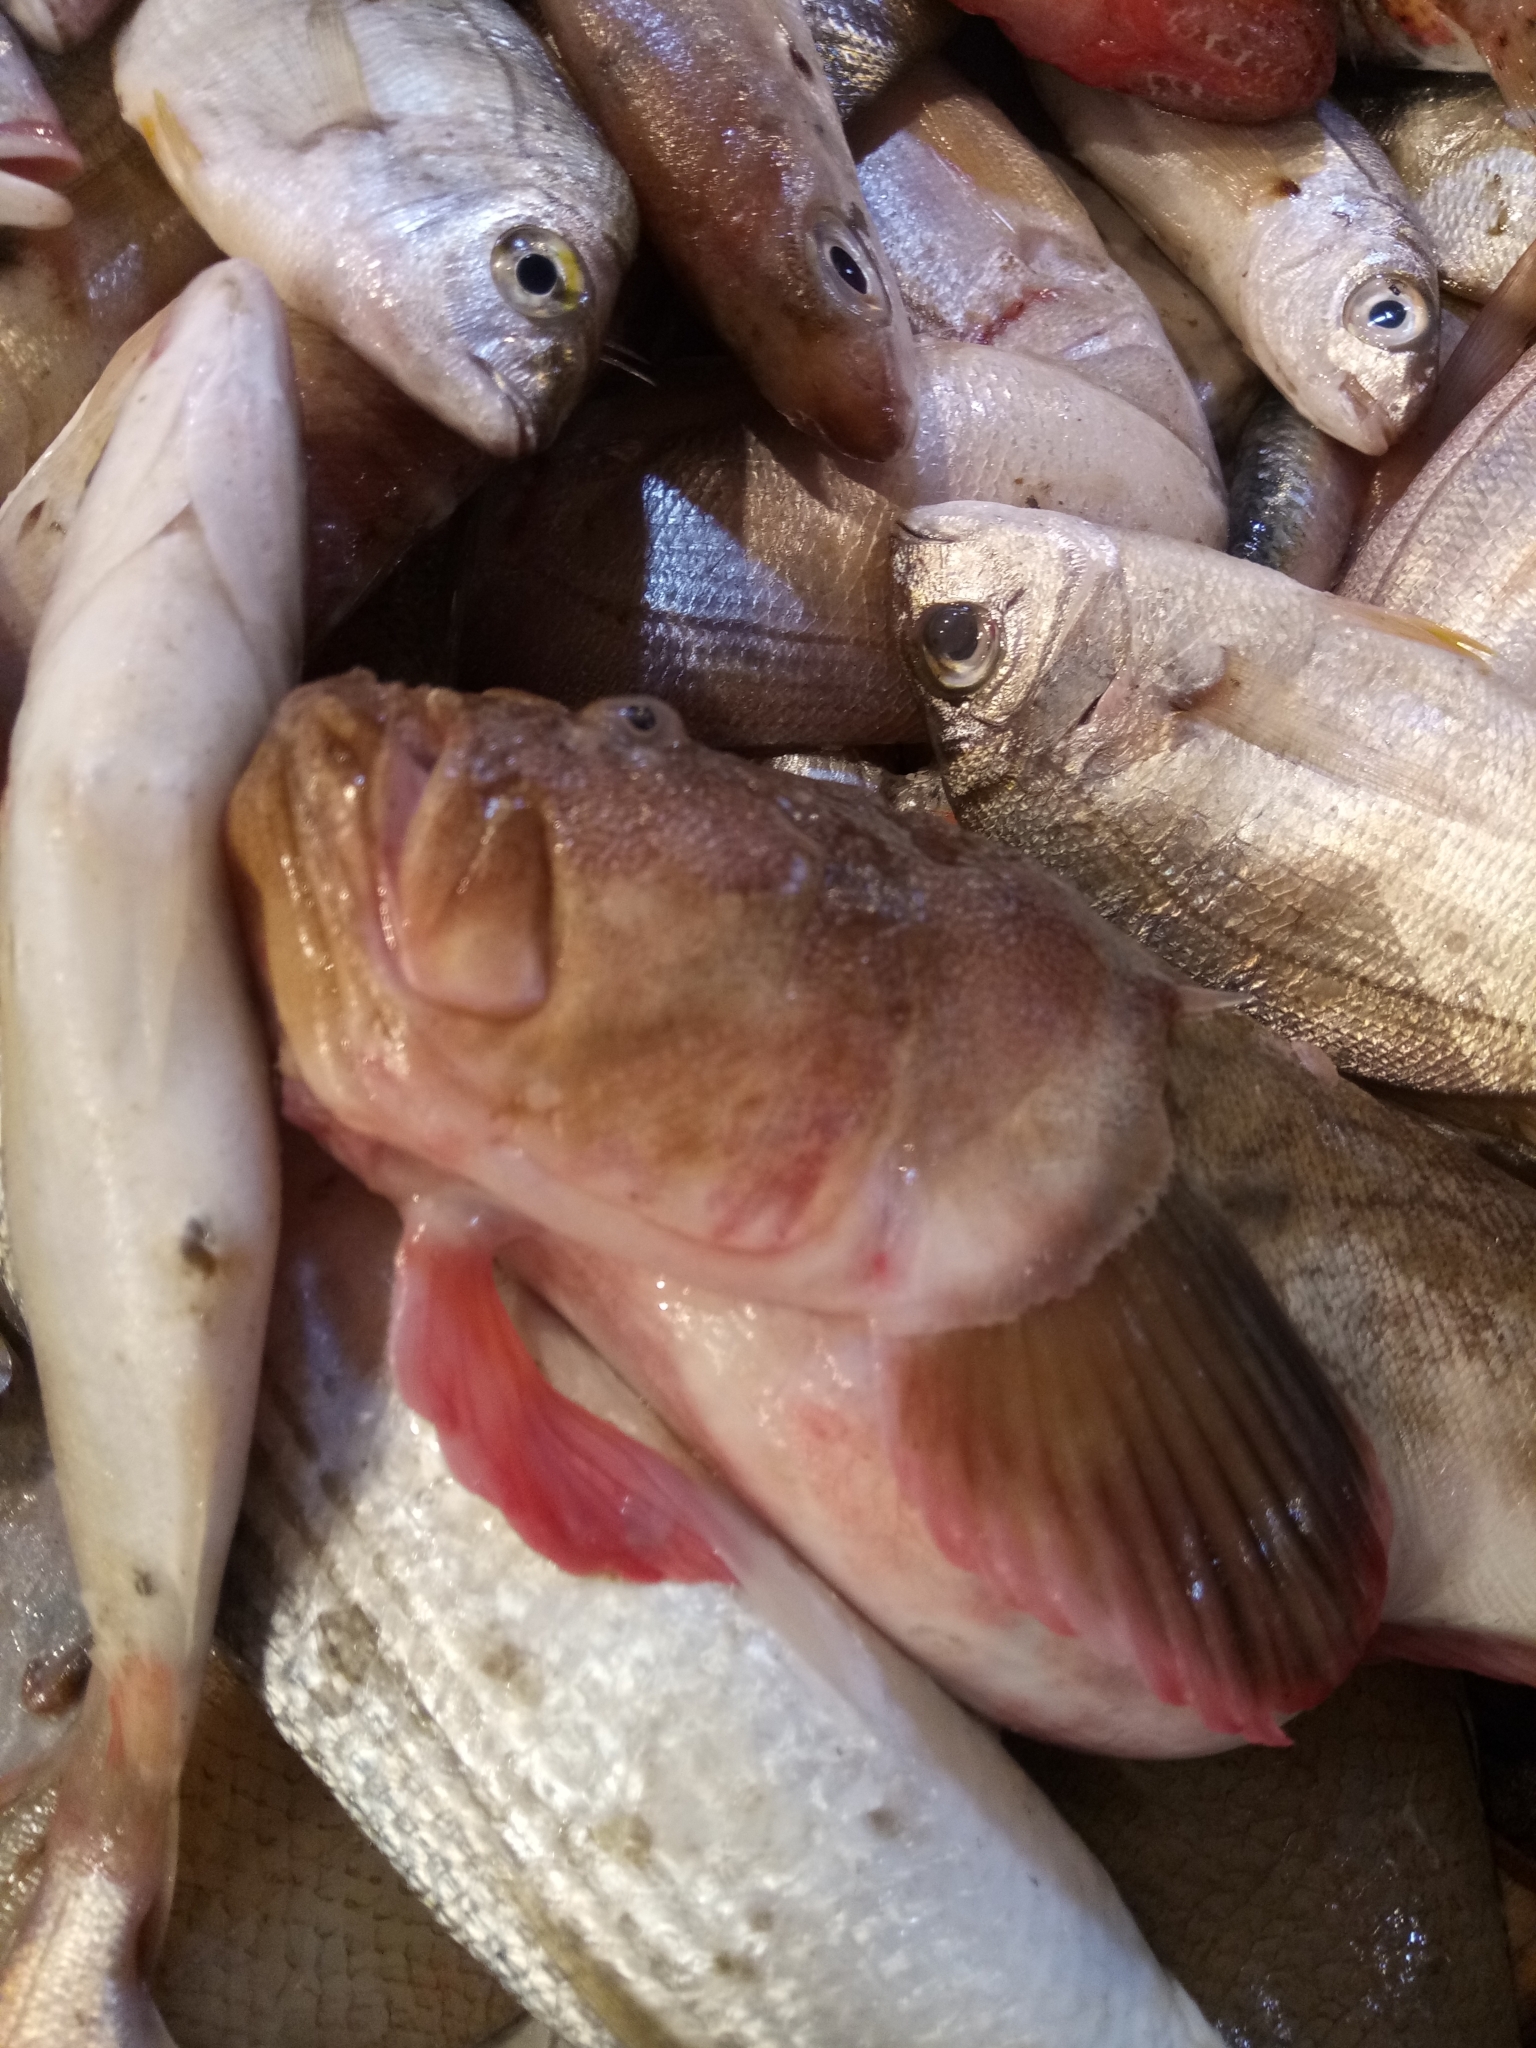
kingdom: Animalia
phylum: Chordata
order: Perciformes
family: Uranoscopidae
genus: Uranoscopus
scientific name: Uranoscopus scaber
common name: Stargazer
